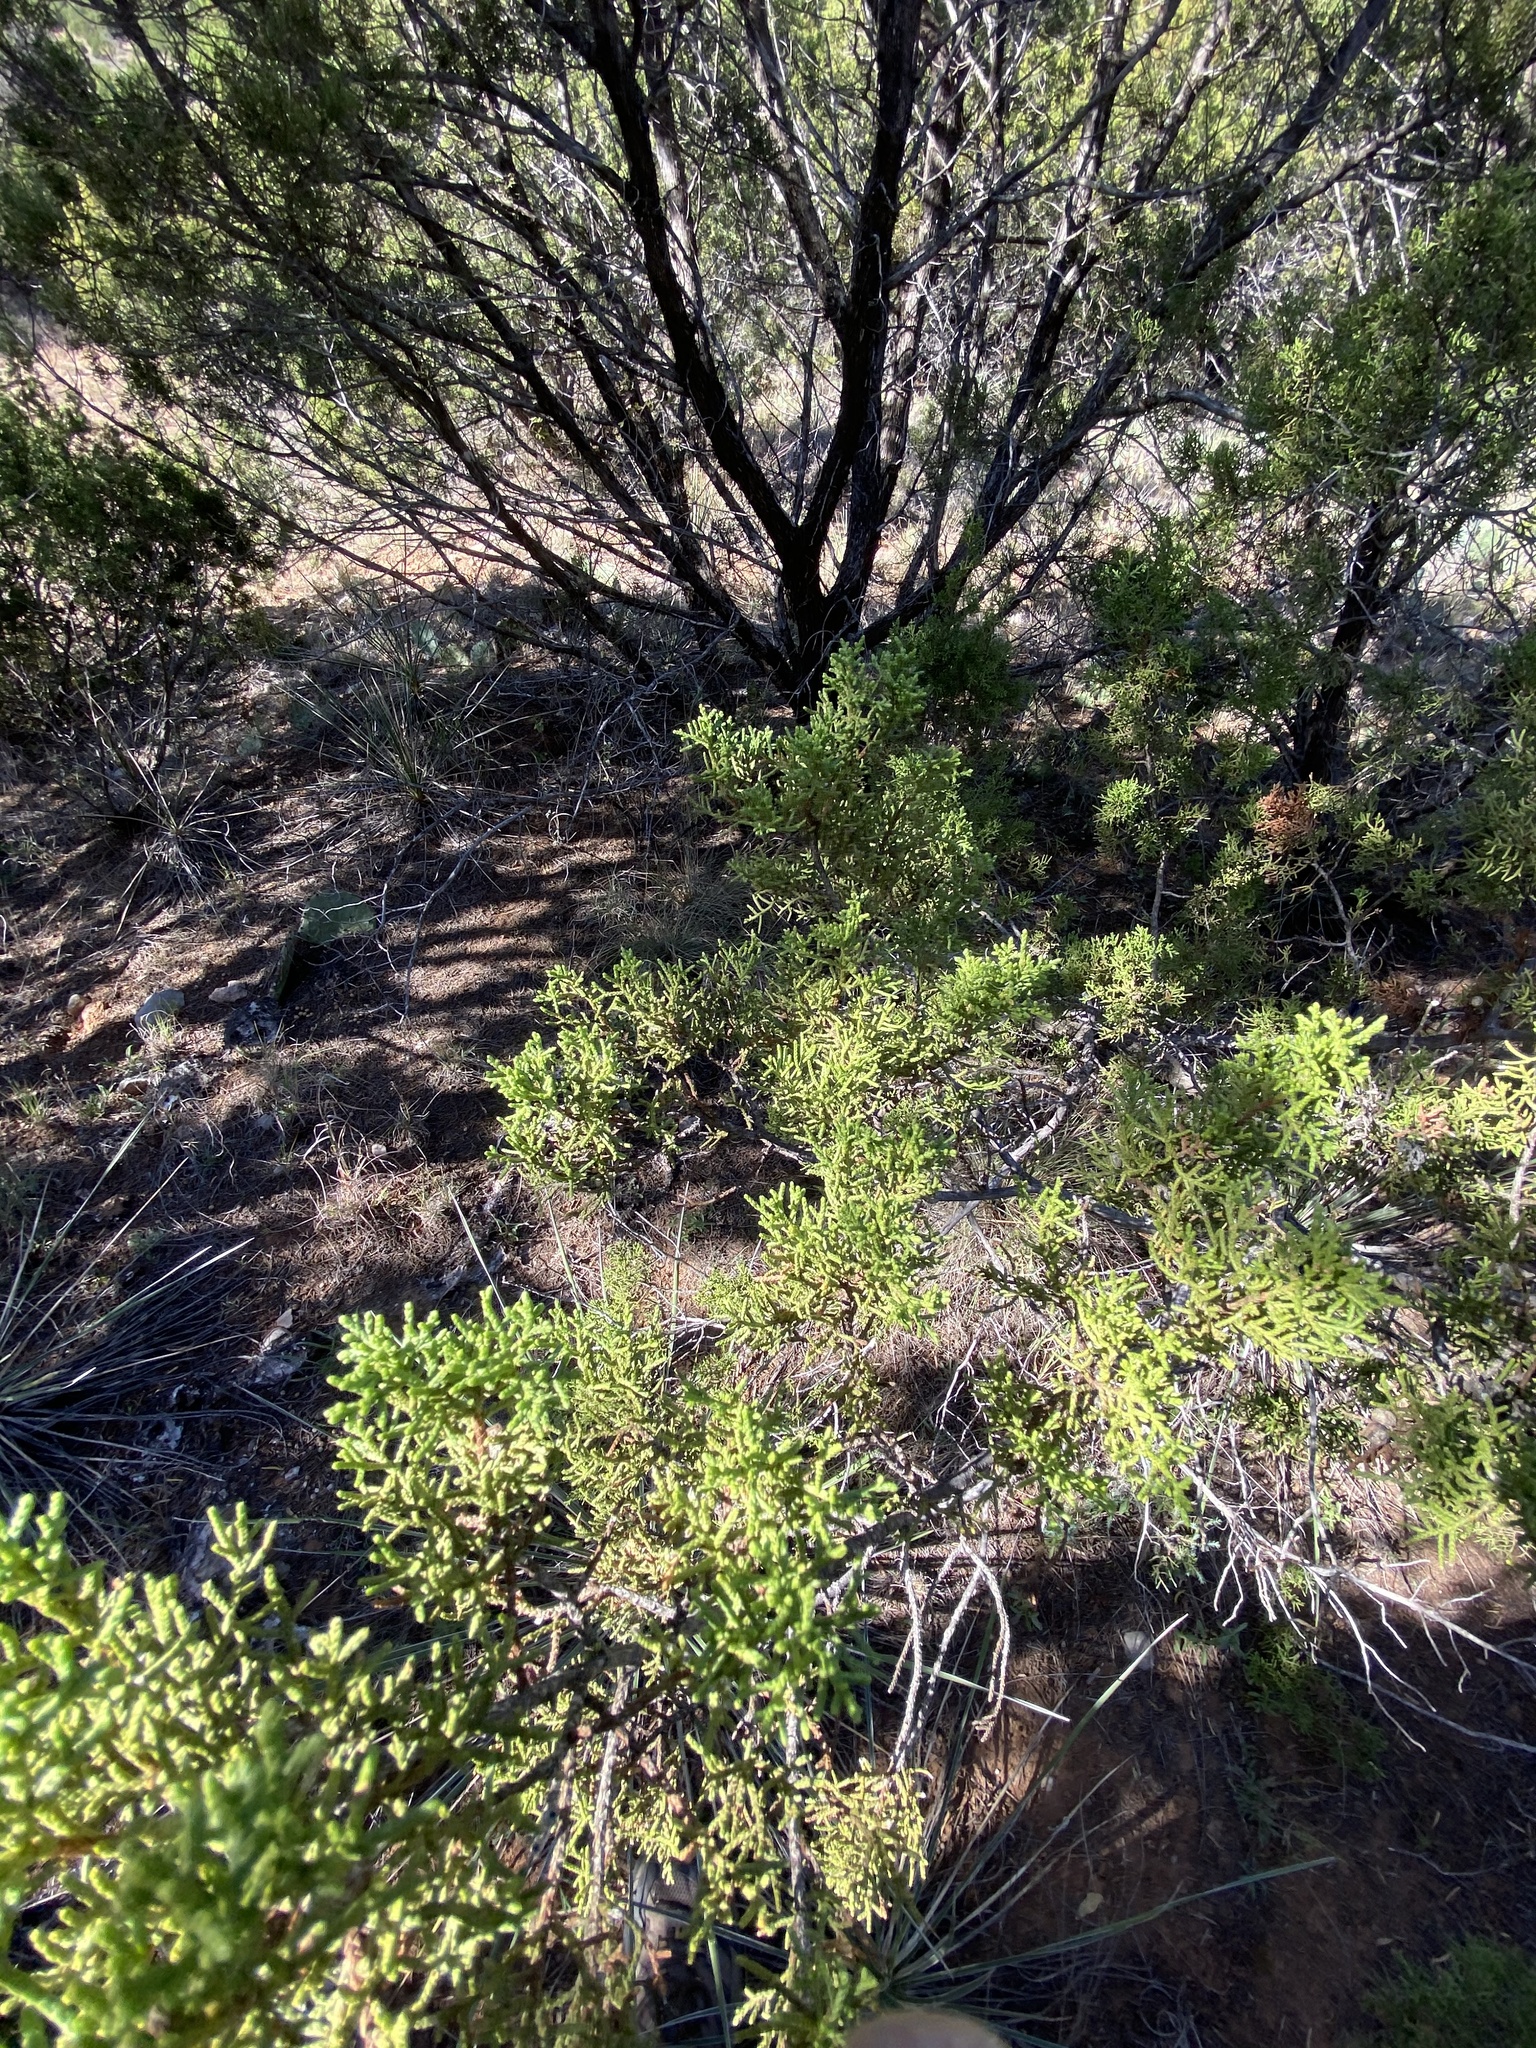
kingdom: Plantae
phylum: Tracheophyta
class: Pinopsida
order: Pinales
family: Cupressaceae
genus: Juniperus
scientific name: Juniperus ashei
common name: Mexican juniper
